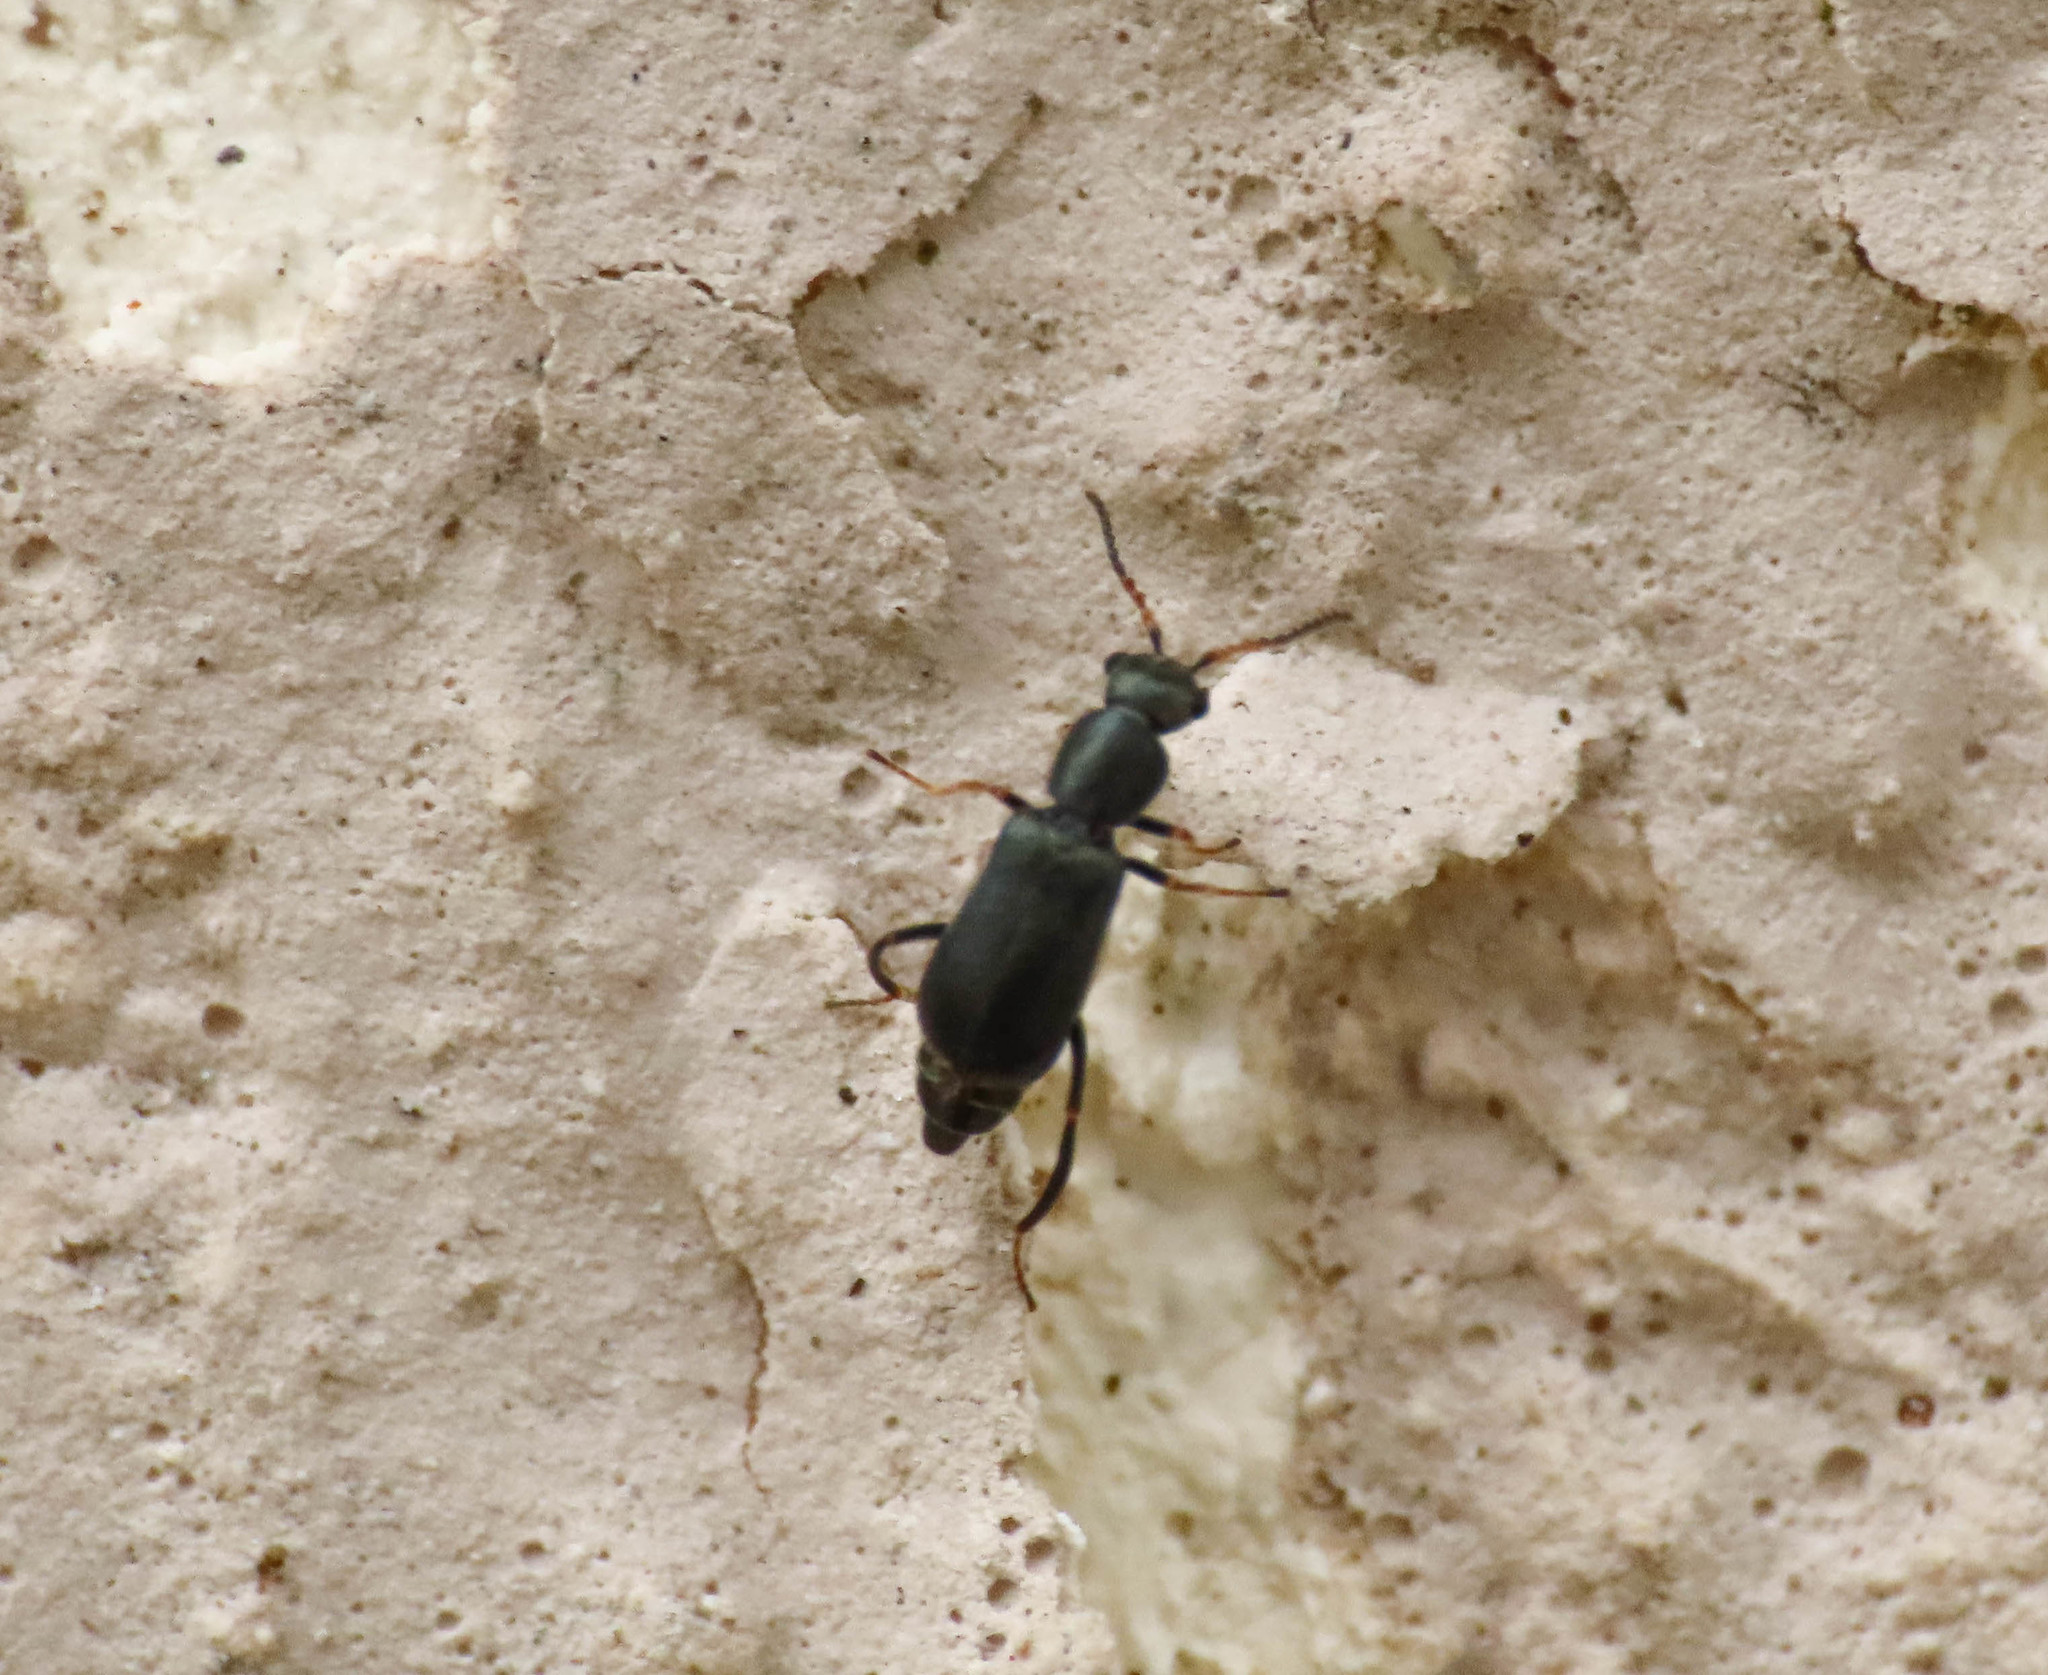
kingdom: Animalia
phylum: Arthropoda
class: Insecta
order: Coleoptera
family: Malachiidae
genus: Charopus
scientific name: Charopus pallipes
